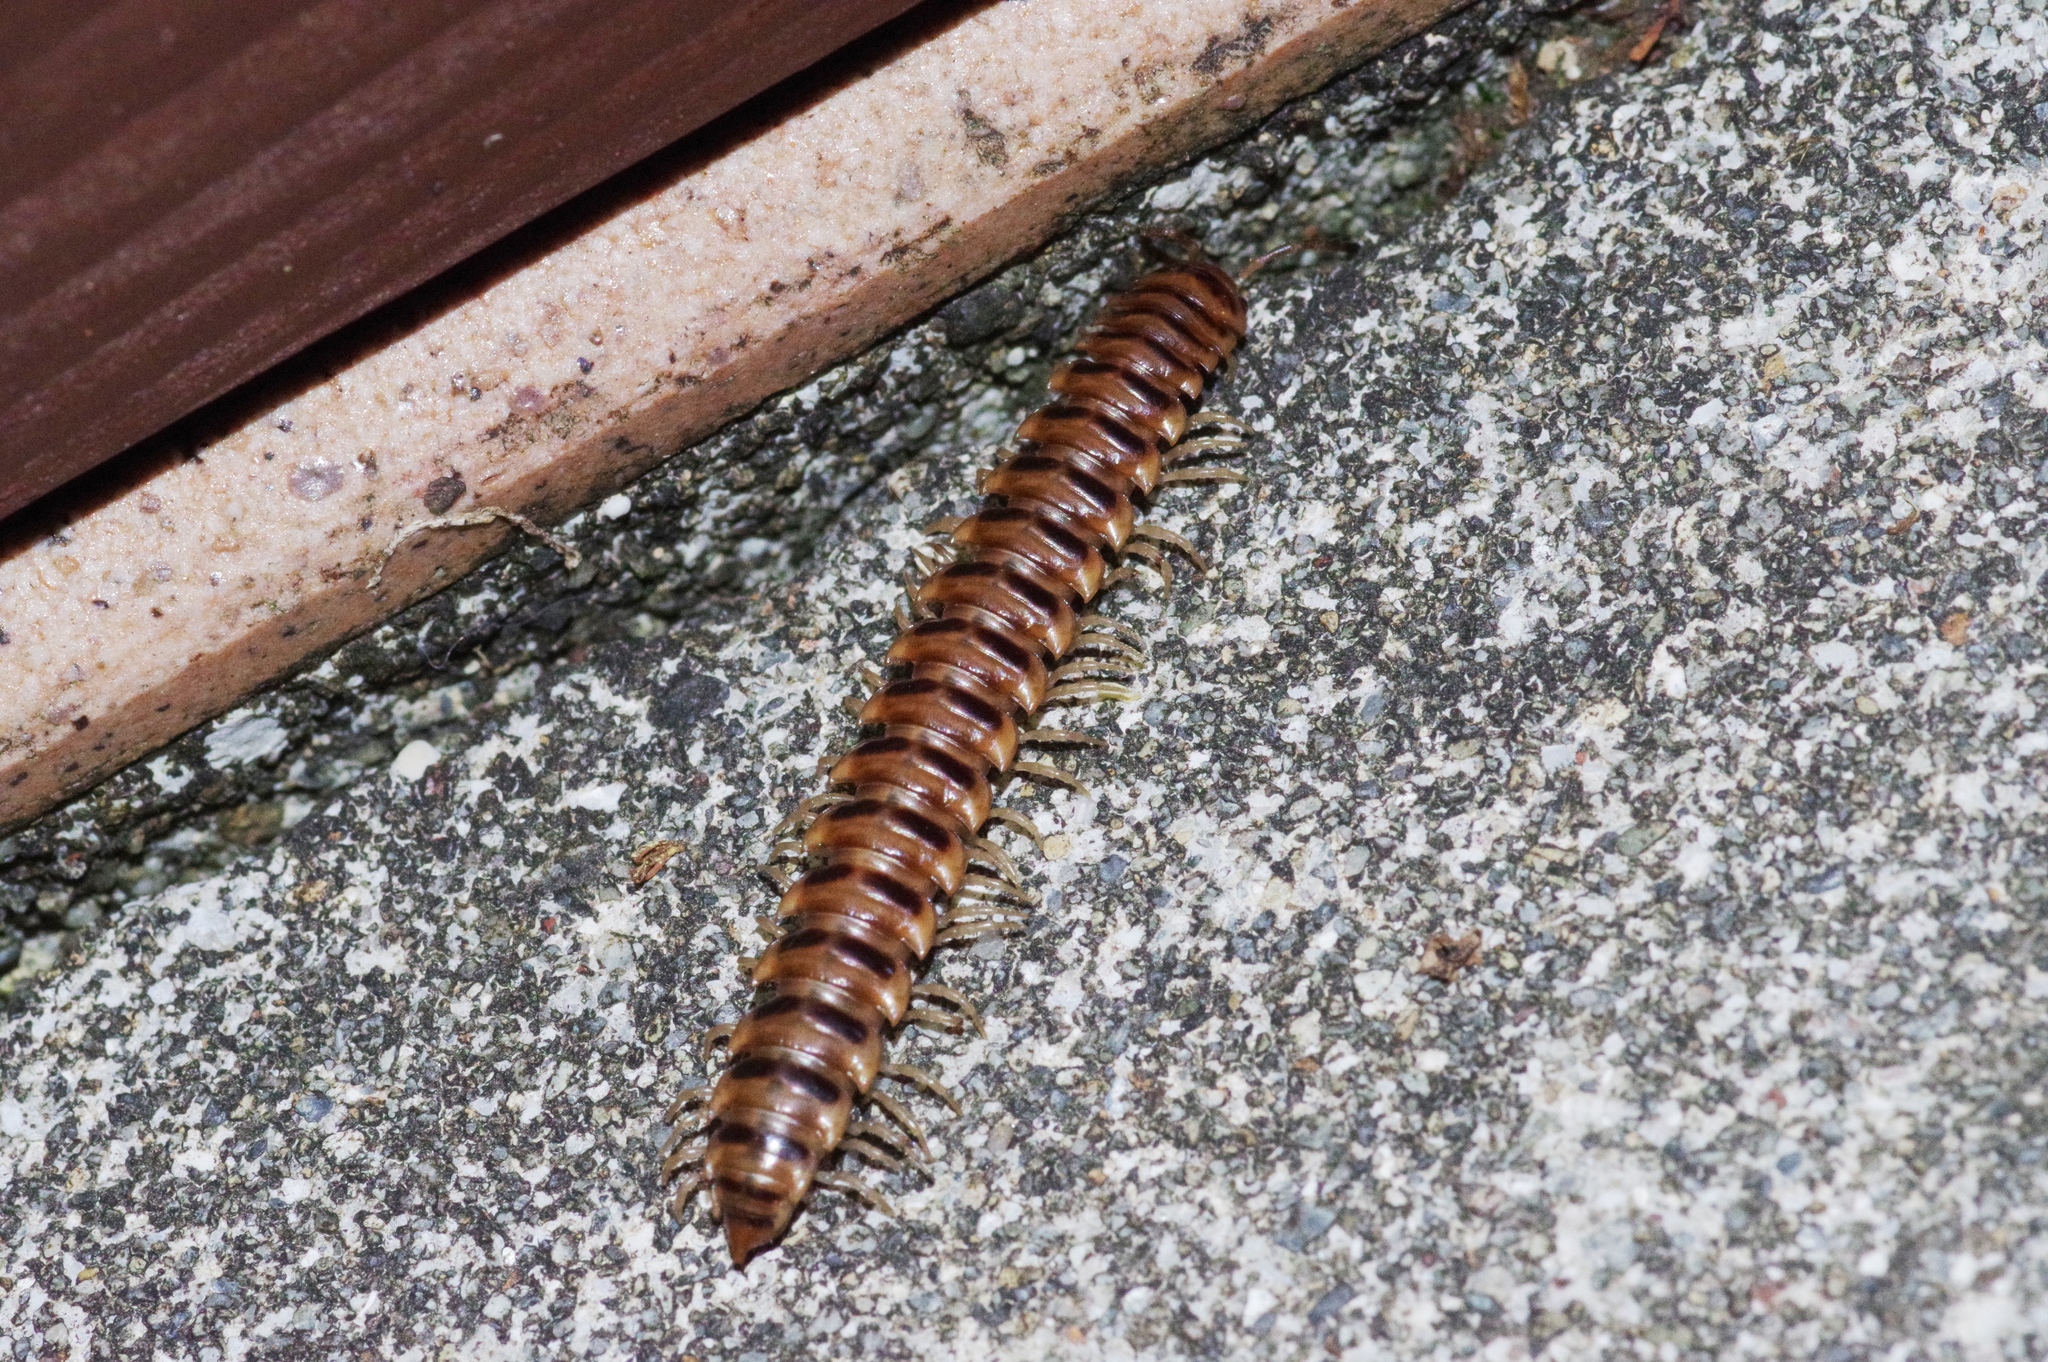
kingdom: Animalia
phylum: Arthropoda
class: Diplopoda
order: Polydesmida
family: Paradoxosomatidae
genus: Chamberlinius
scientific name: Chamberlinius hualienensis
